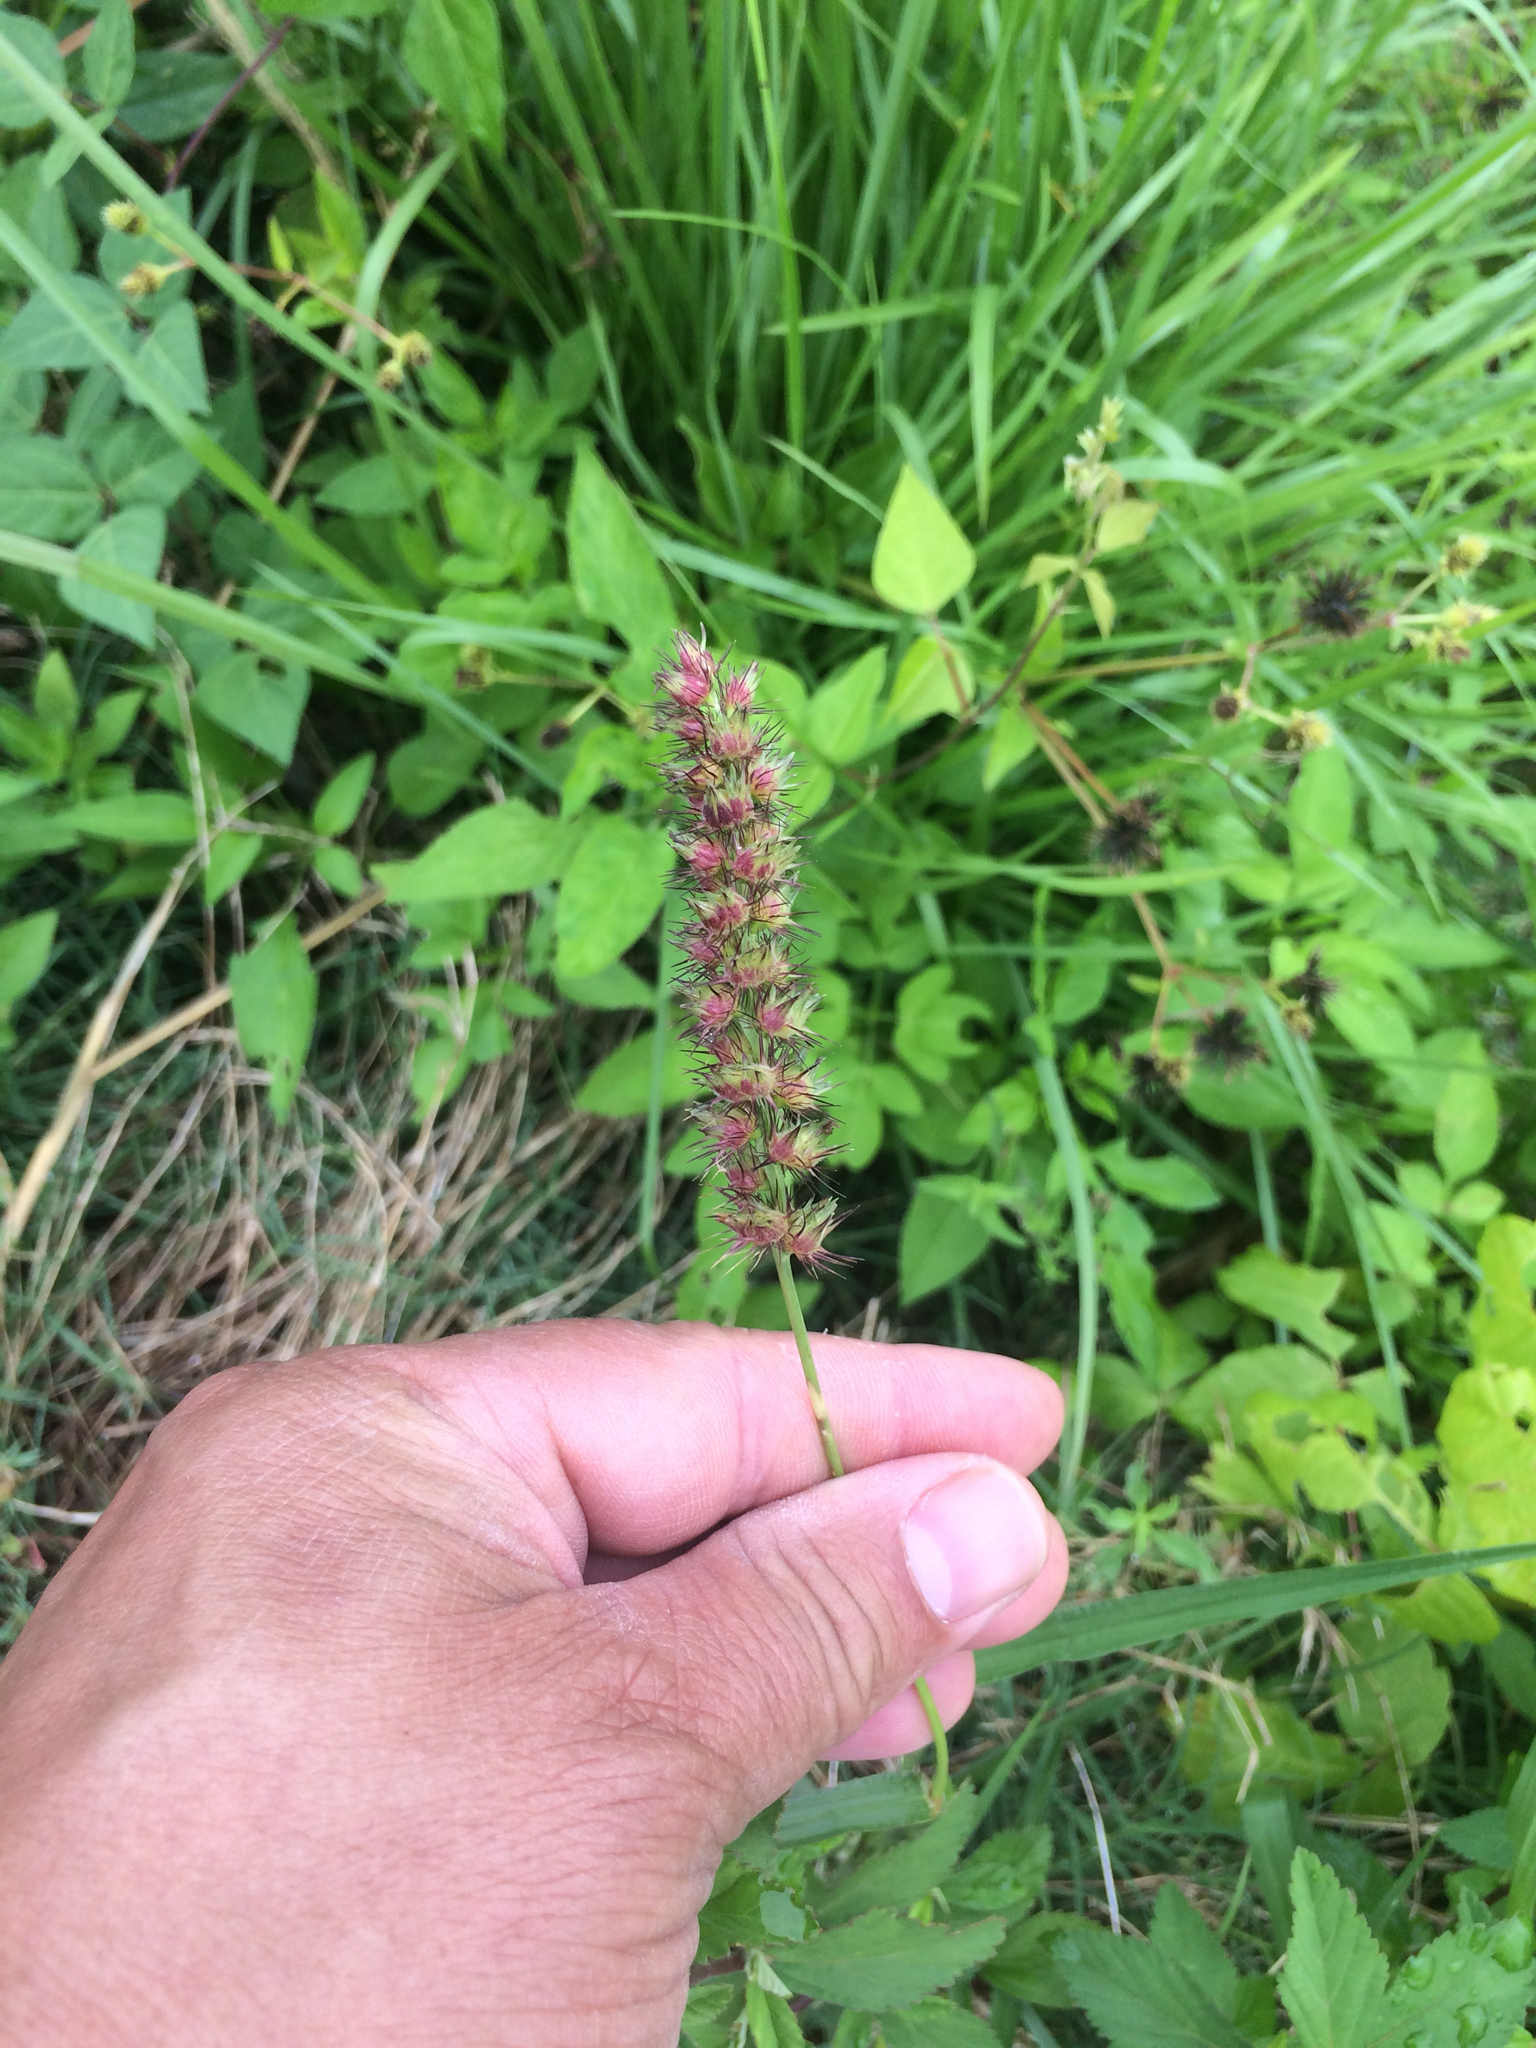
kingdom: Plantae
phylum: Tracheophyta
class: Liliopsida
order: Poales
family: Poaceae
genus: Cenchrus
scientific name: Cenchrus echinatus
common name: Southern sandbur
